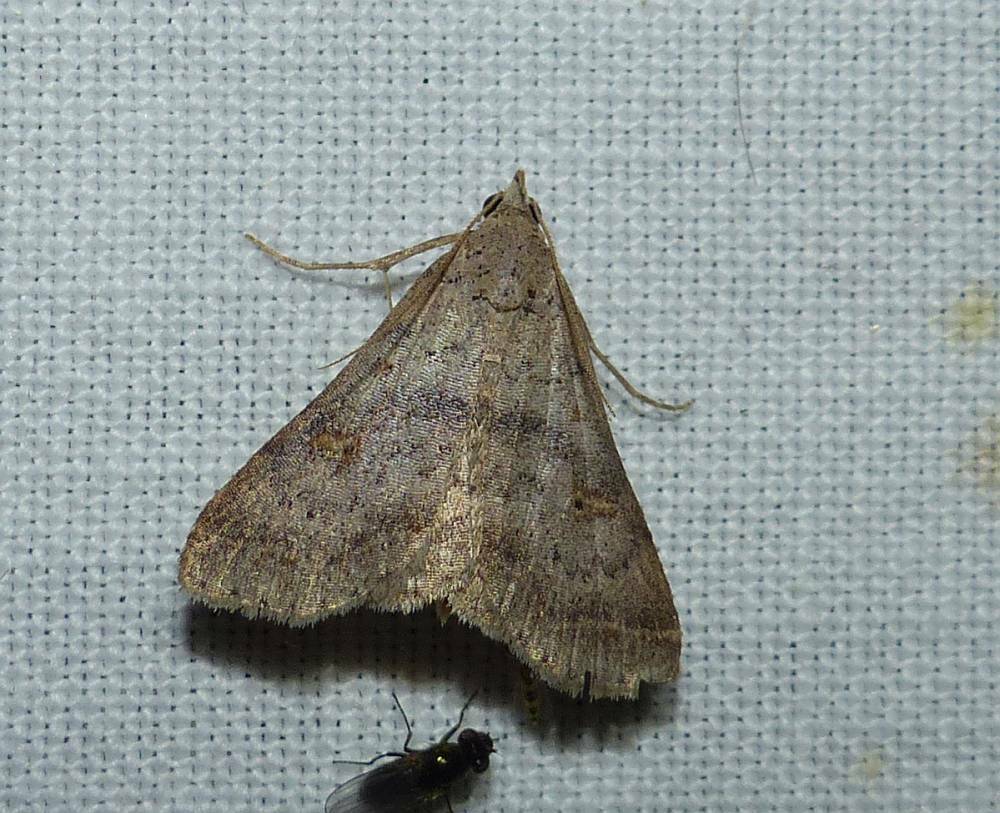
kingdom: Animalia
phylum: Arthropoda
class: Insecta
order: Lepidoptera
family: Erebidae
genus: Bleptina
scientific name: Bleptina caradrinalis
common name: Bent-winged owlet
